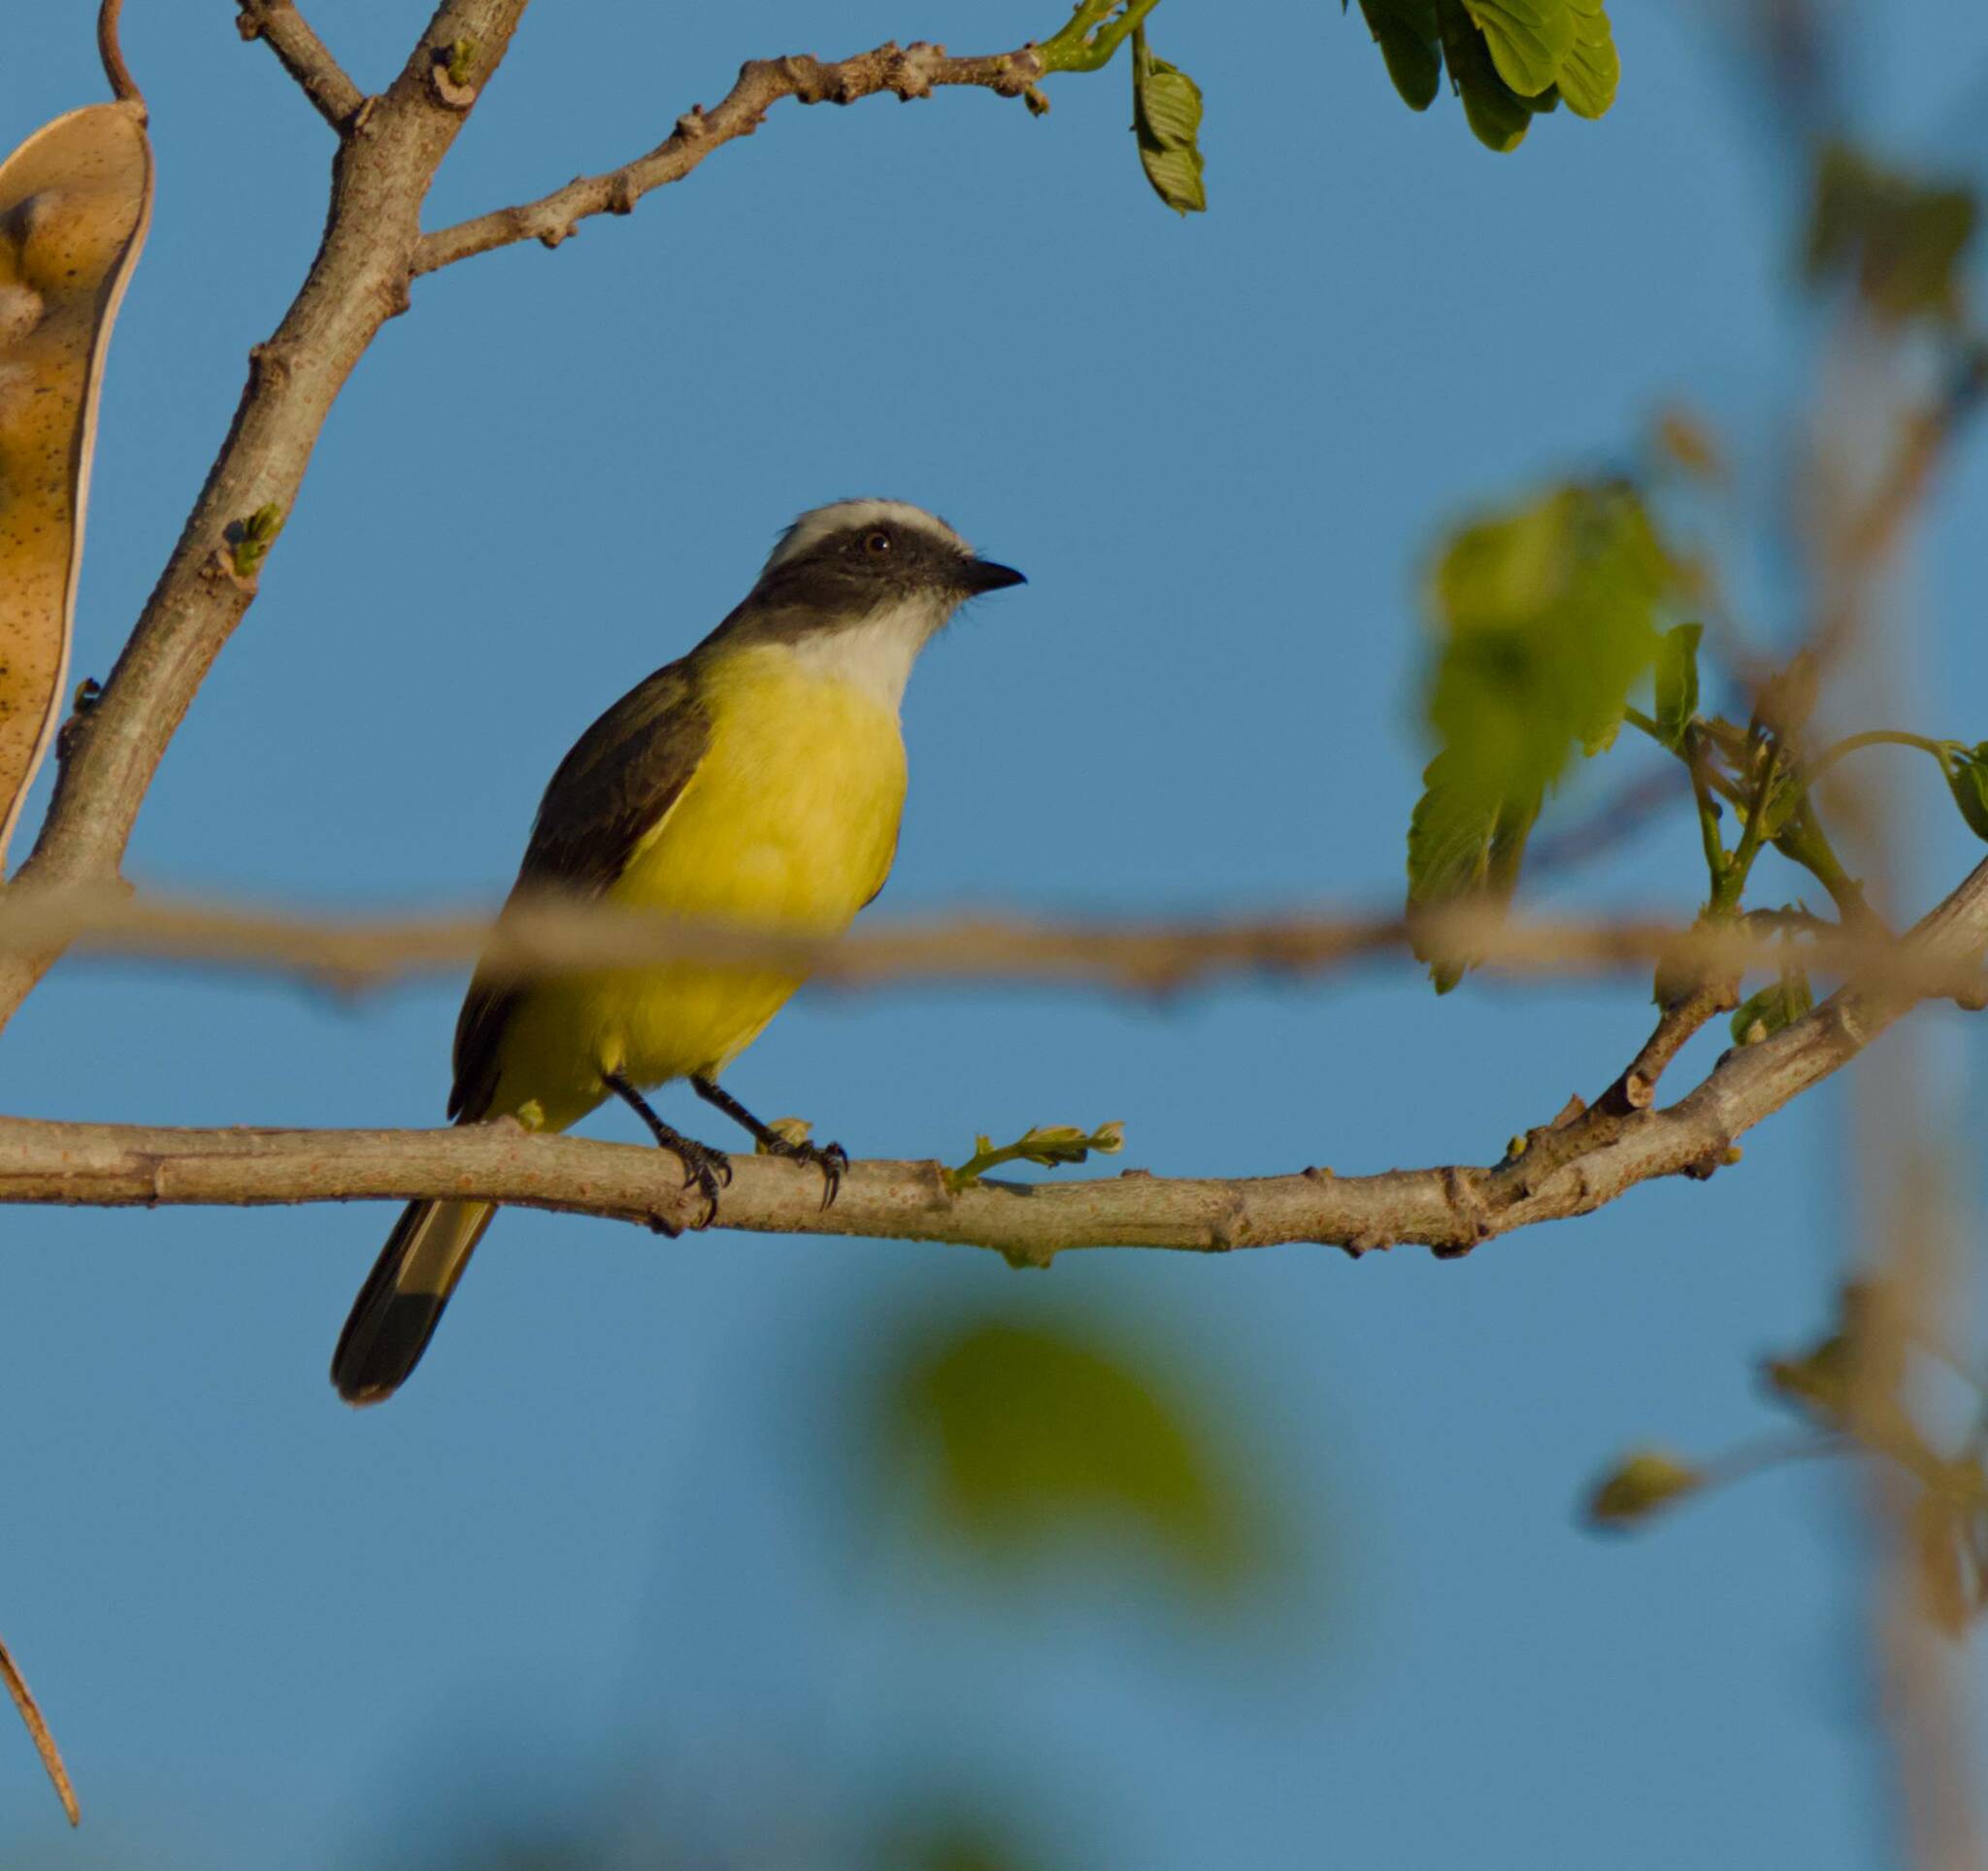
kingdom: Animalia
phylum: Chordata
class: Aves
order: Passeriformes
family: Tyrannidae
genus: Myiozetetes
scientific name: Myiozetetes similis
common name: Social flycatcher
